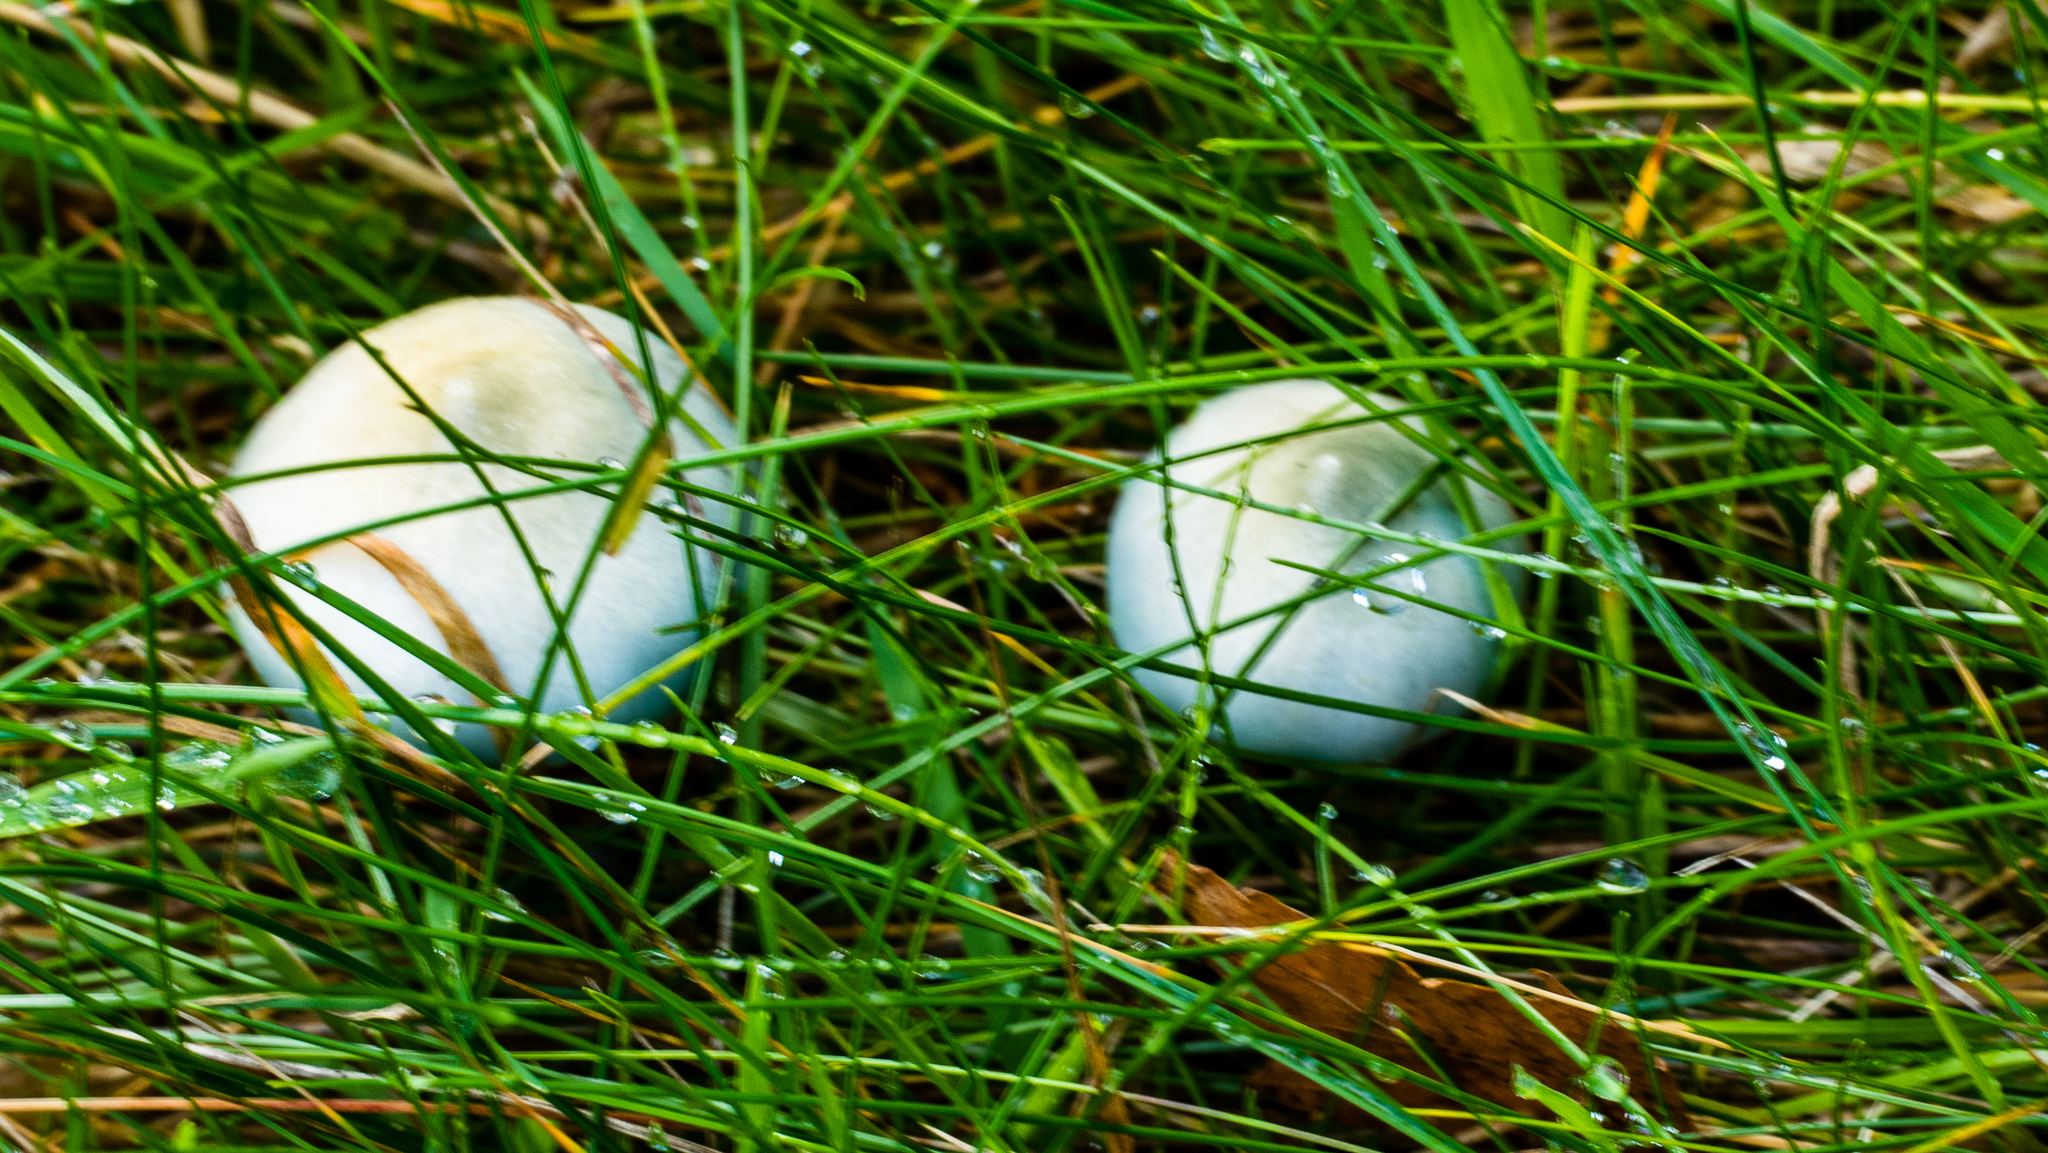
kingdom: Fungi
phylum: Basidiomycota
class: Agaricomycetes
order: Agaricales
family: Strophariaceae
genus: Stropharia
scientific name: Stropharia caerulea
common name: Blue roundhead
